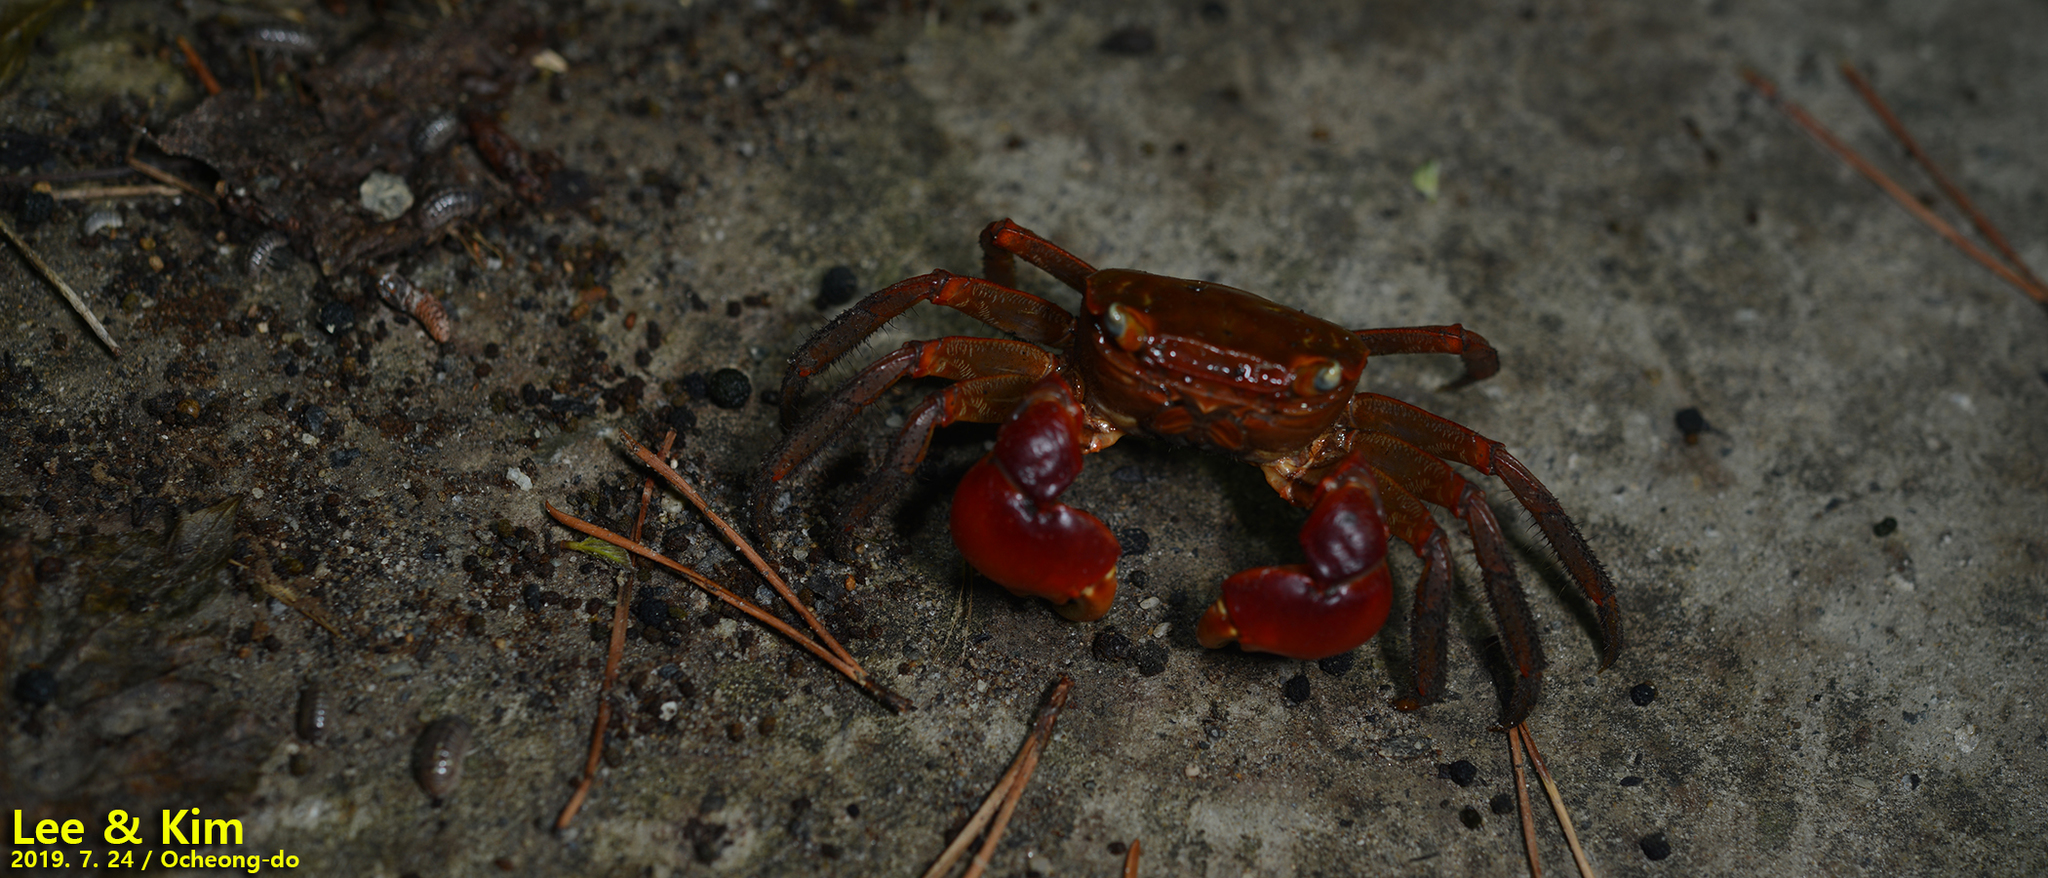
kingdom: Animalia
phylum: Arthropoda
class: Malacostraca
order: Decapoda
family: Sesarmidae
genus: Chiromantes
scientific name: Chiromantes haematocheir
